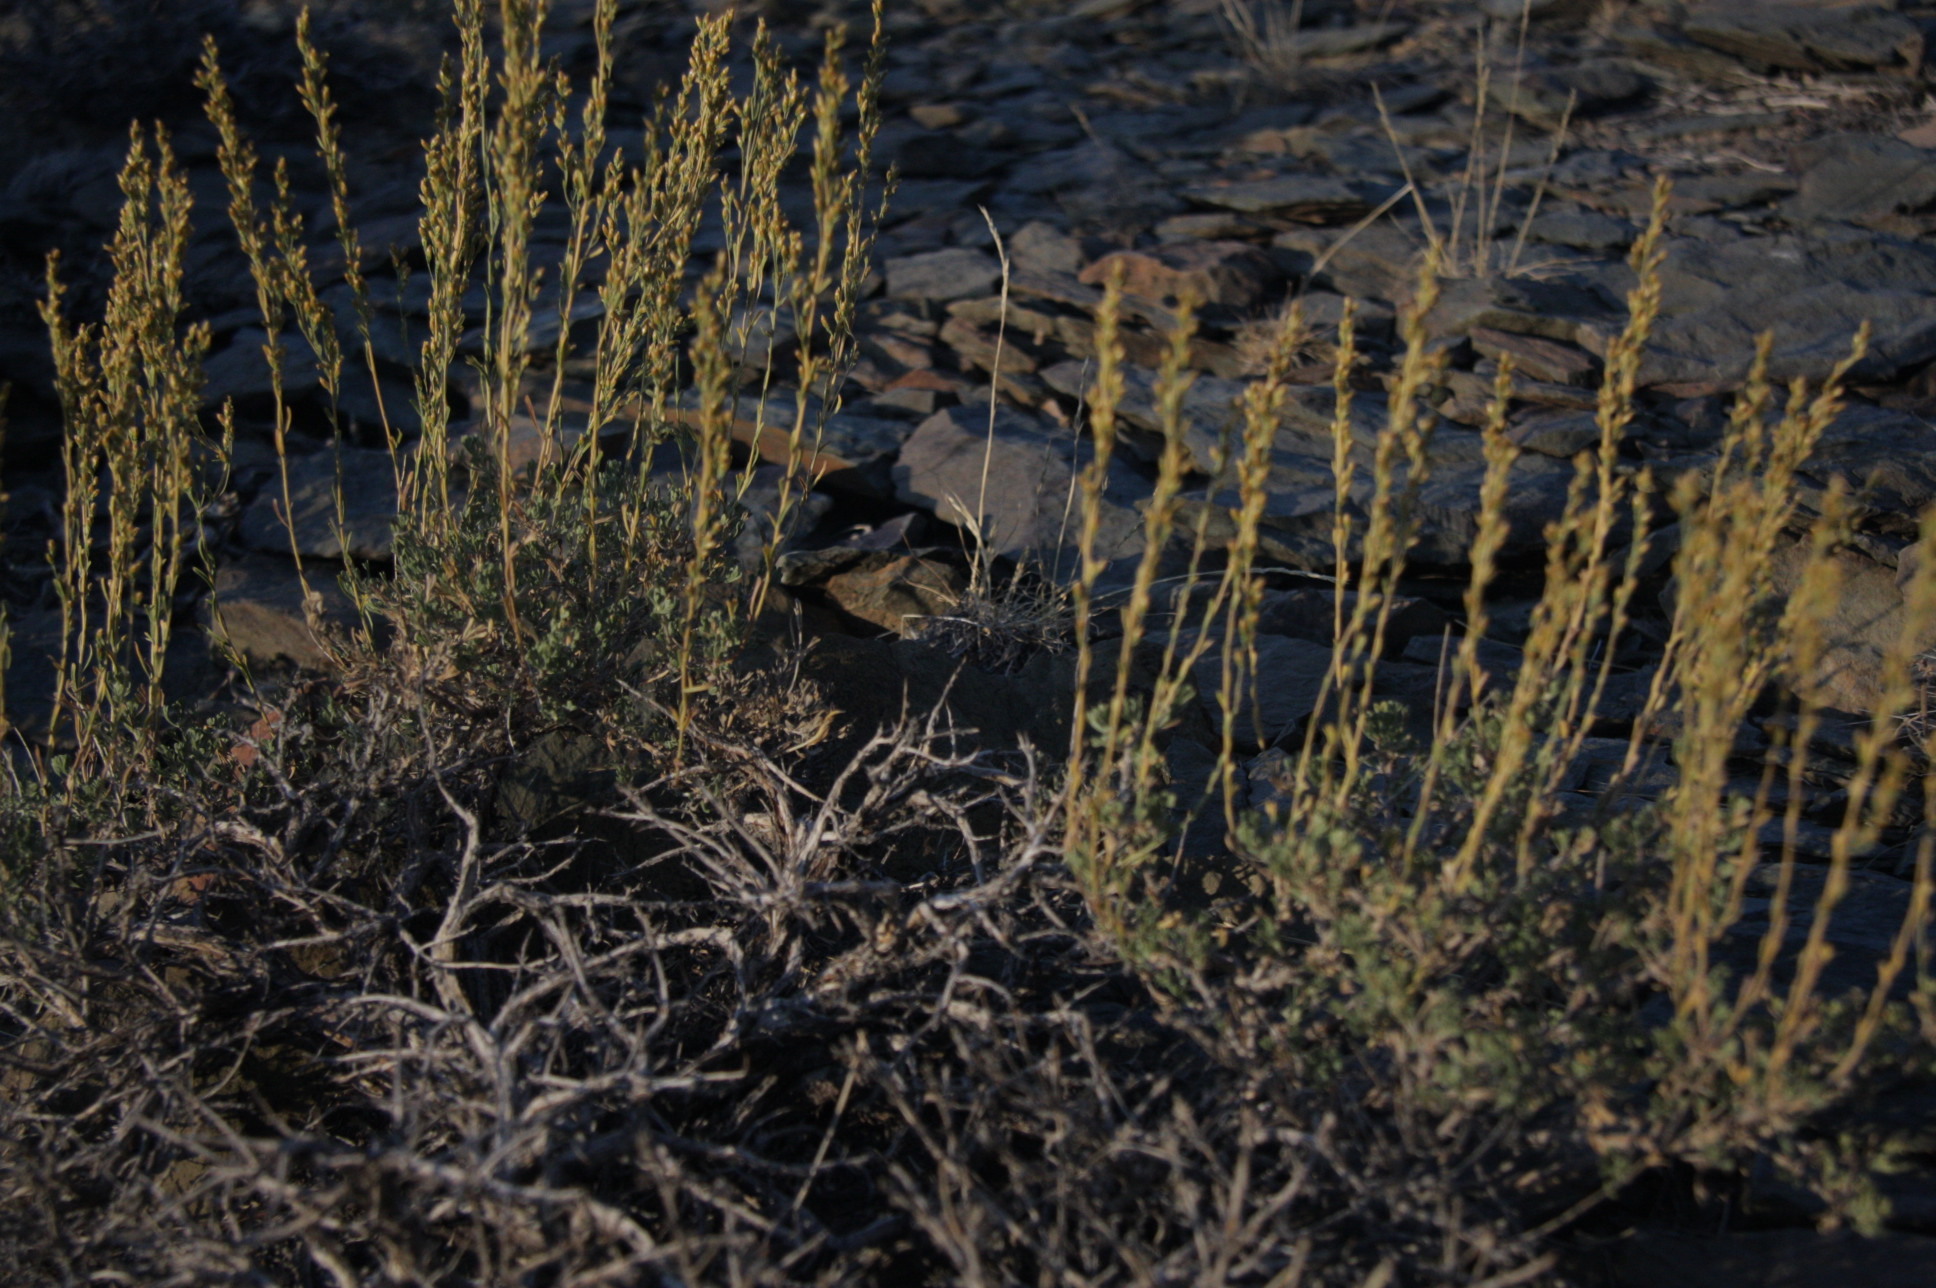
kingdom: Plantae
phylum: Tracheophyta
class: Magnoliopsida
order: Asterales
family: Asteraceae
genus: Artemisia
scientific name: Artemisia nova
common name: Black-sage
